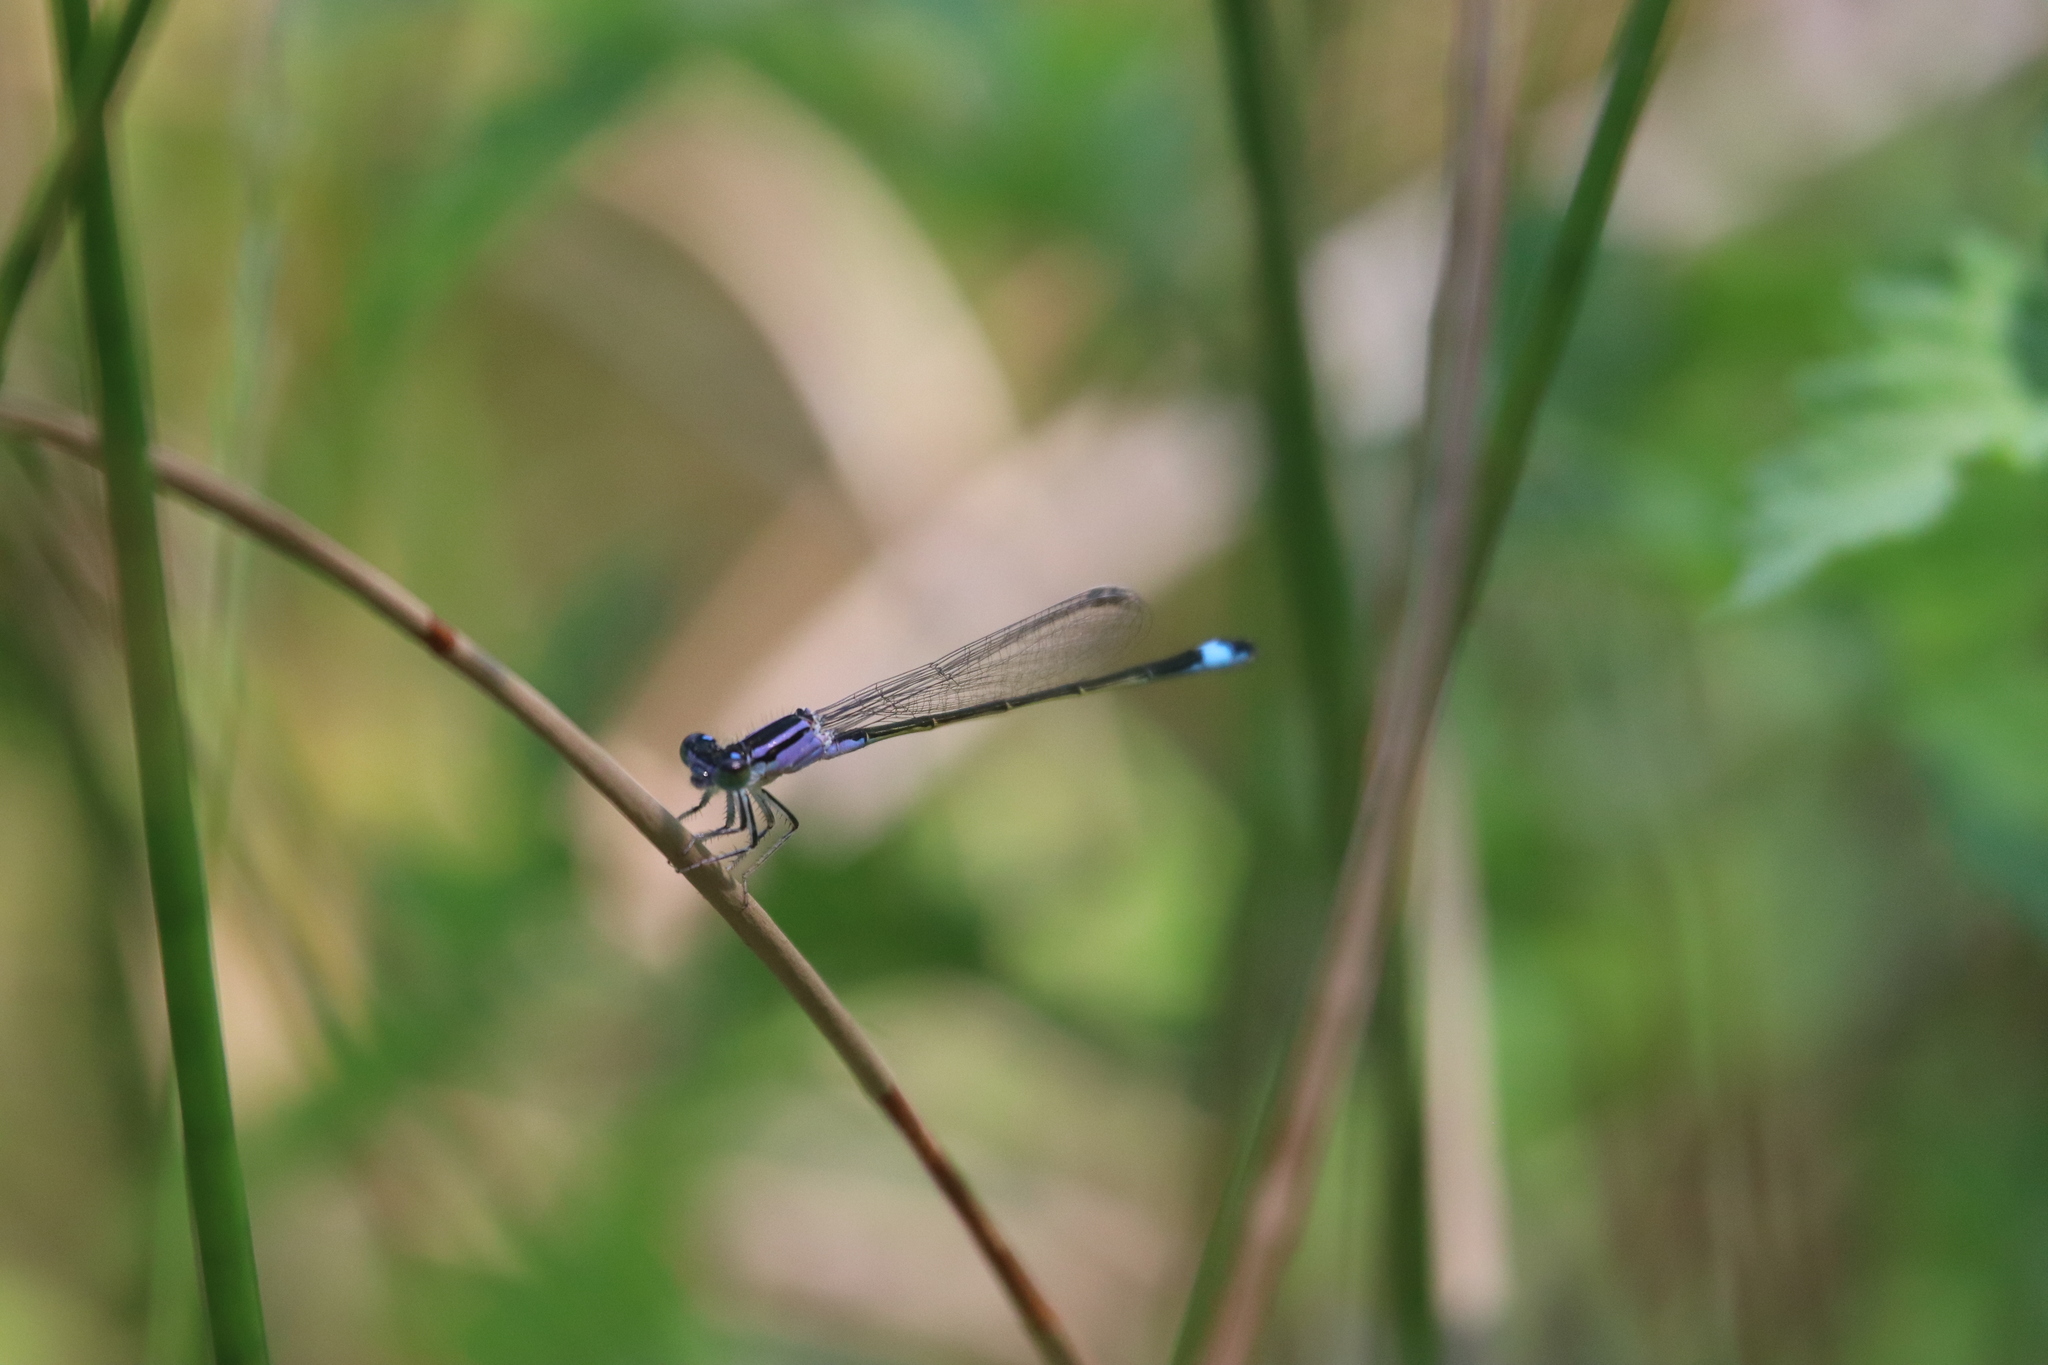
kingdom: Animalia
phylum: Arthropoda
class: Insecta
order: Odonata
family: Coenagrionidae
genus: Ischnura
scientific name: Ischnura elegans
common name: Blue-tailed damselfly
